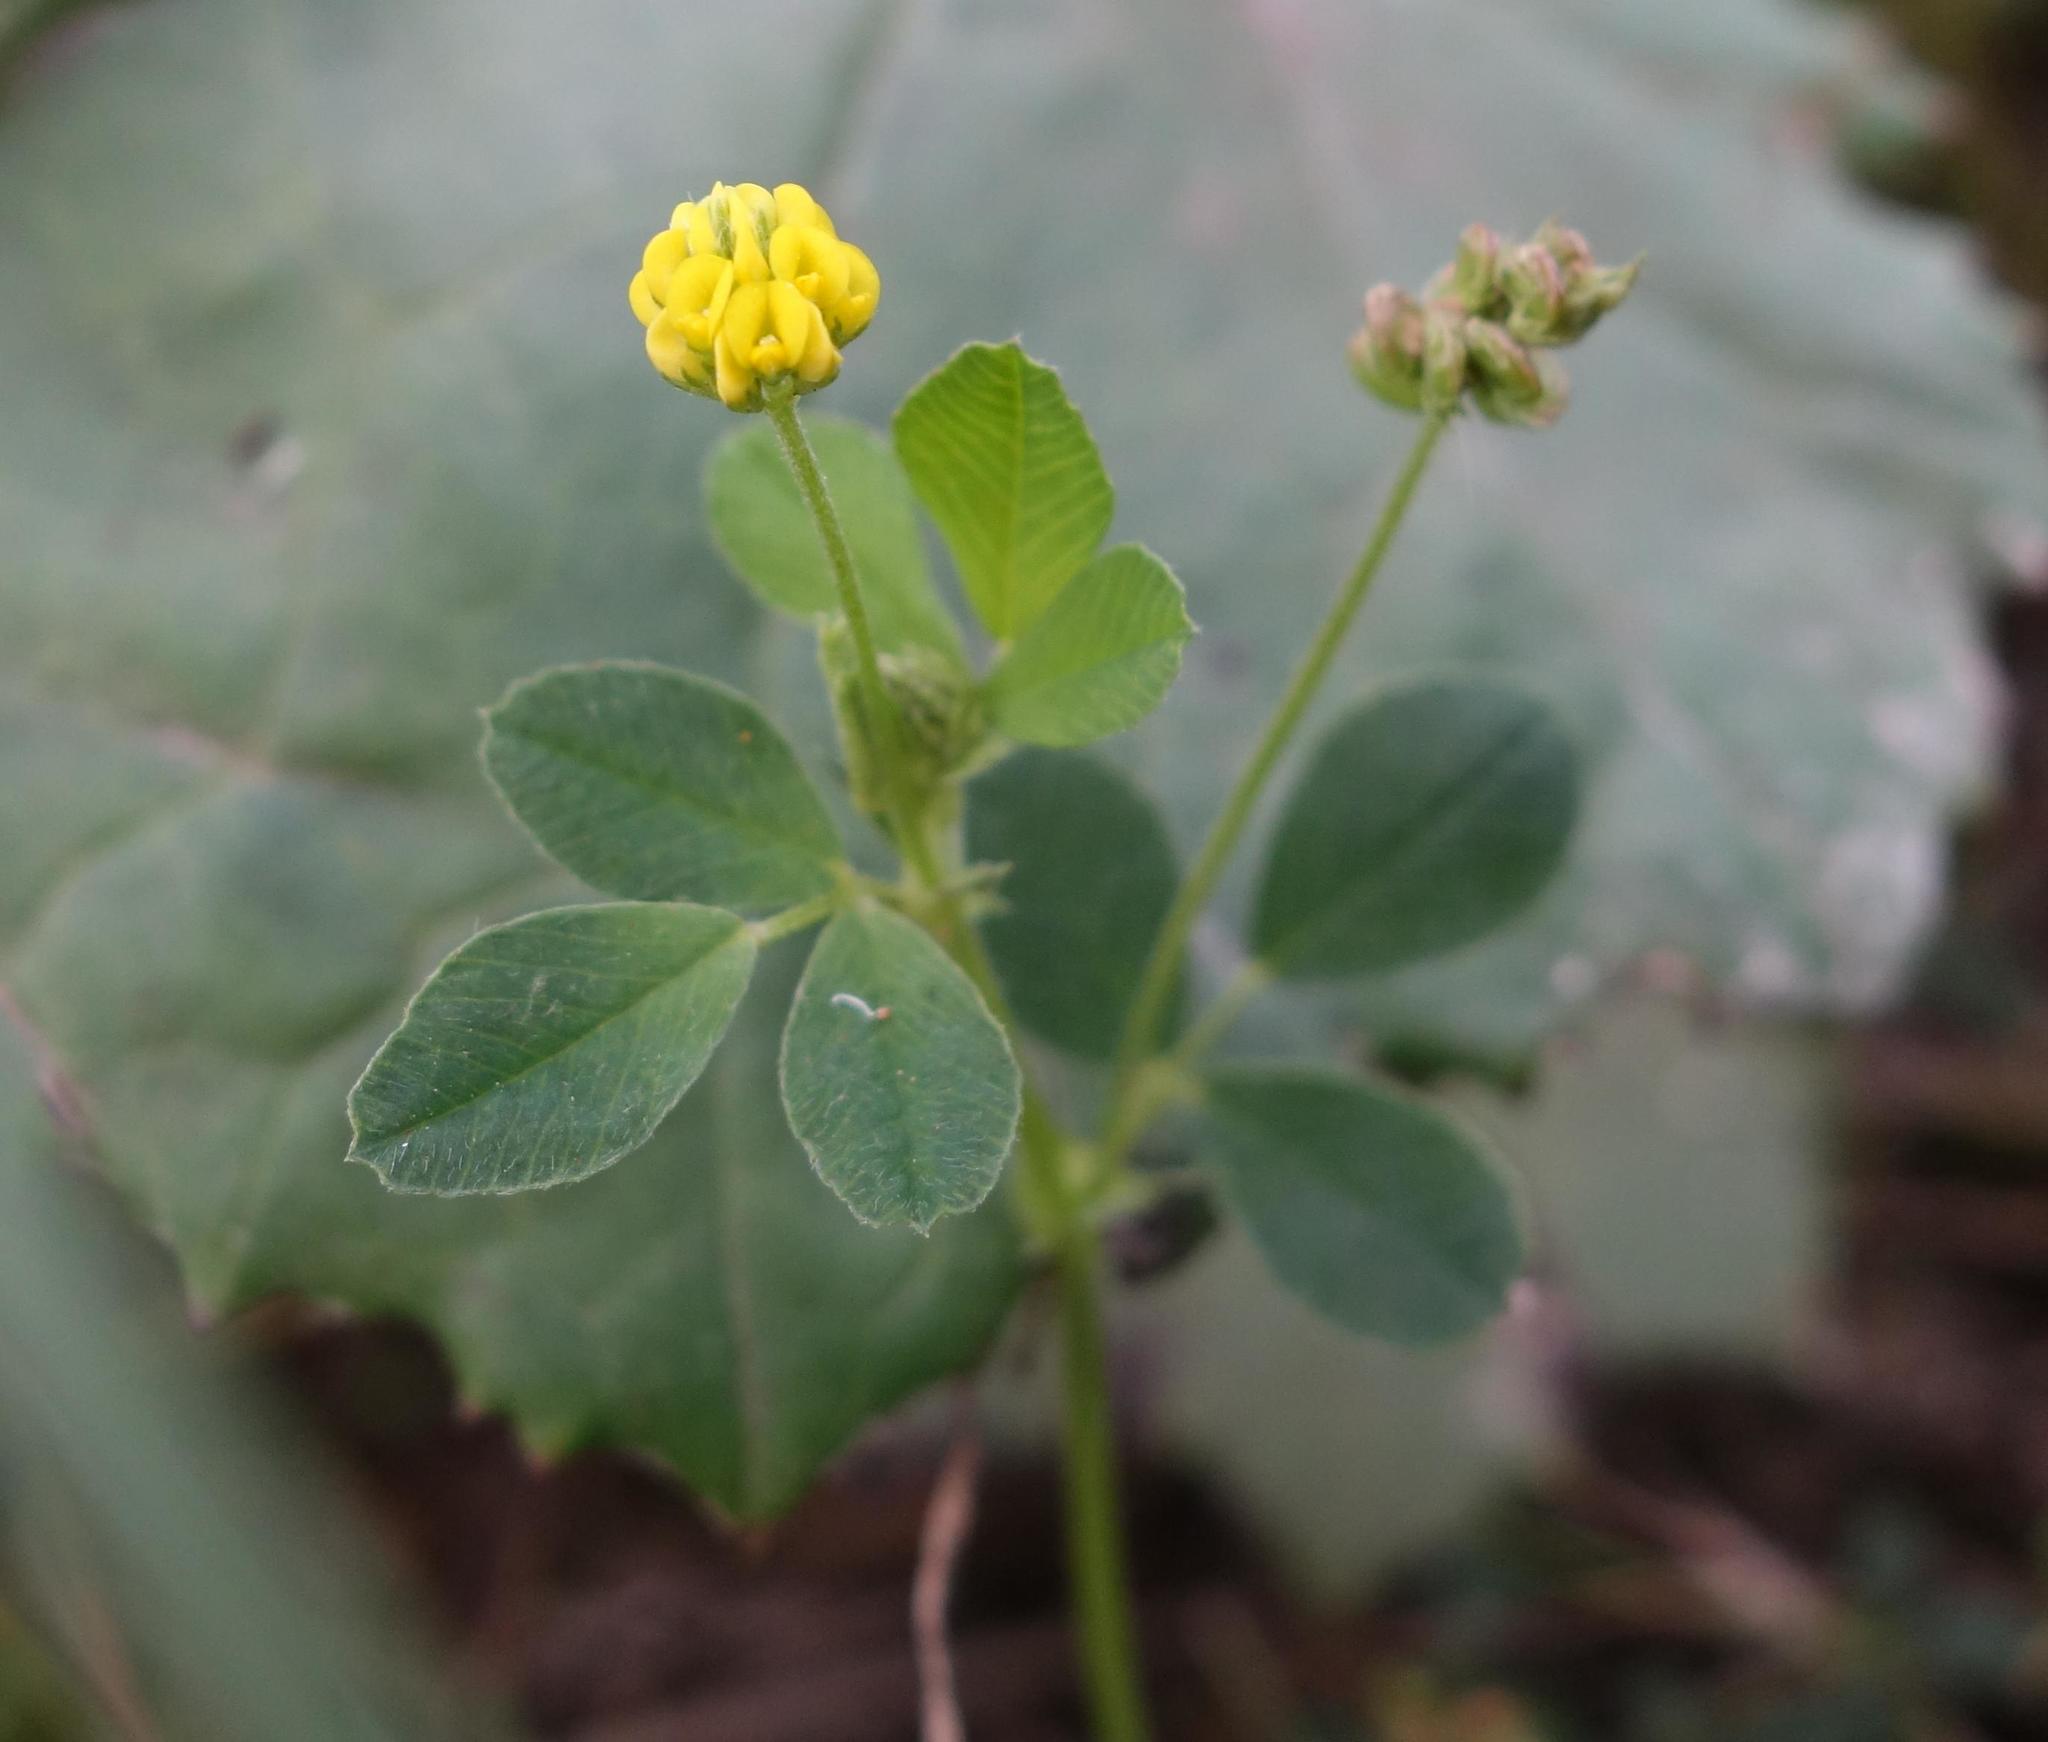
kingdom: Plantae
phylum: Tracheophyta
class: Magnoliopsida
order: Fabales
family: Fabaceae
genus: Medicago
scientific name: Medicago lupulina
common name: Black medick
